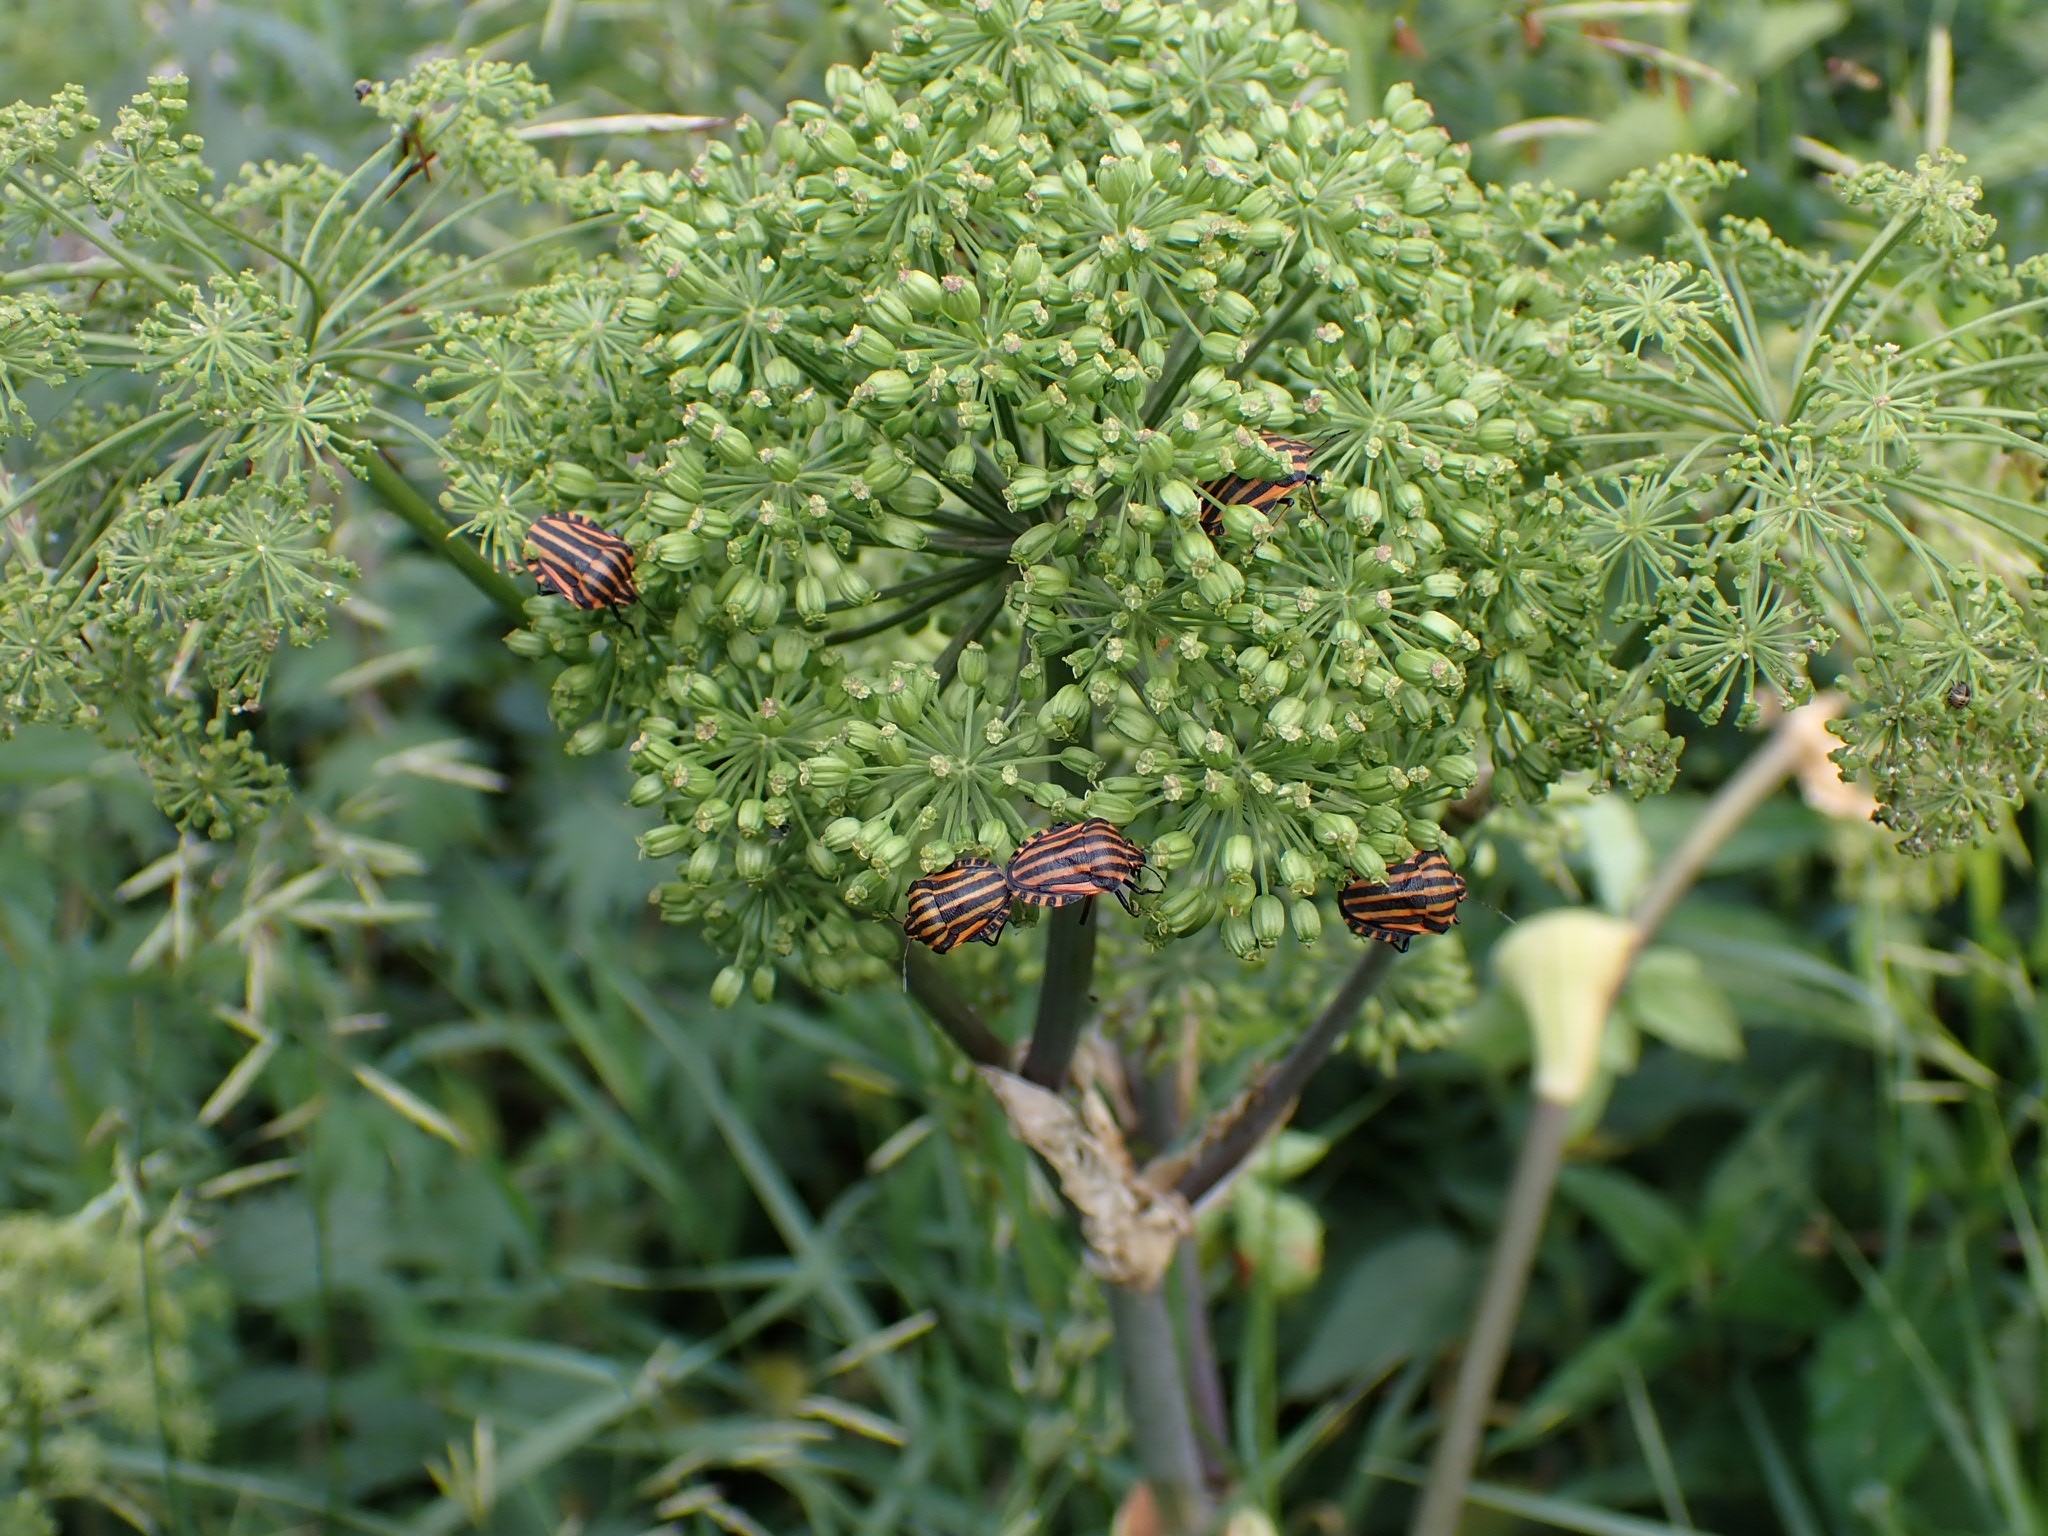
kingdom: Animalia
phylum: Arthropoda
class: Insecta
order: Hemiptera
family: Pentatomidae
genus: Graphosoma
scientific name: Graphosoma italicum
